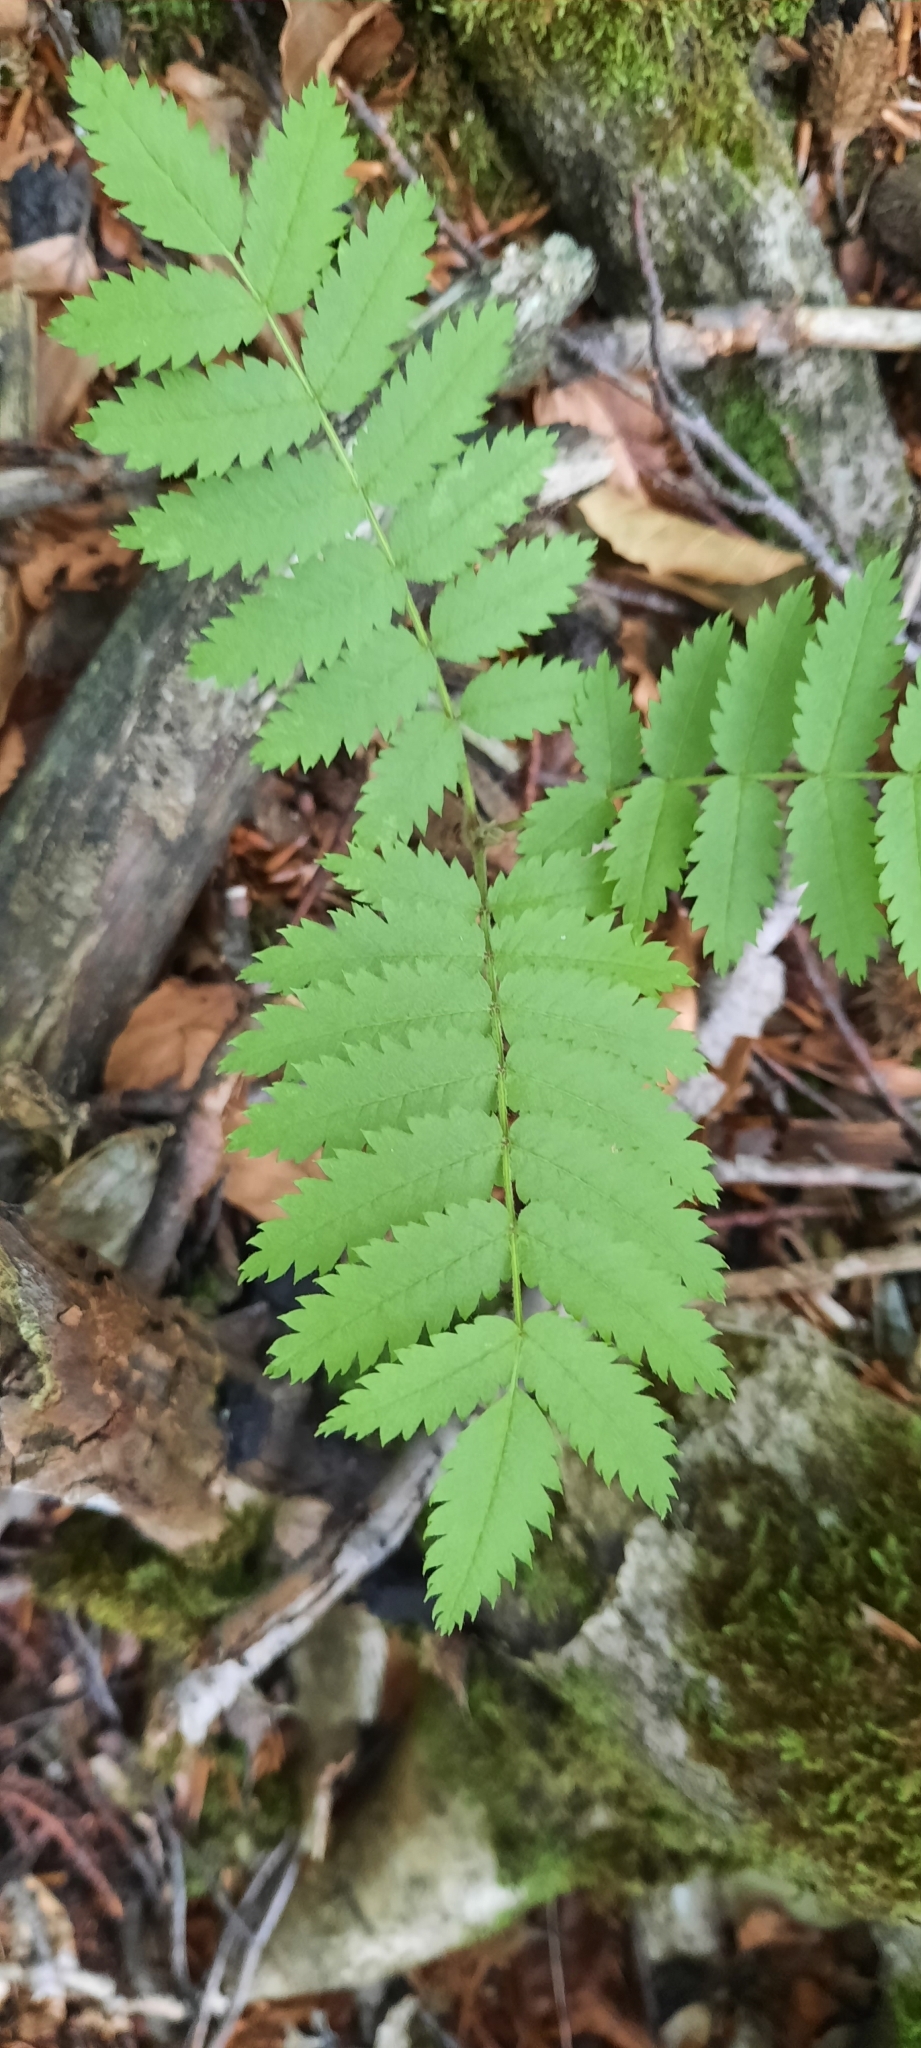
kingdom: Plantae
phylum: Tracheophyta
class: Magnoliopsida
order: Rosales
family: Rosaceae
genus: Sorbus
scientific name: Sorbus aucuparia
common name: Rowan
